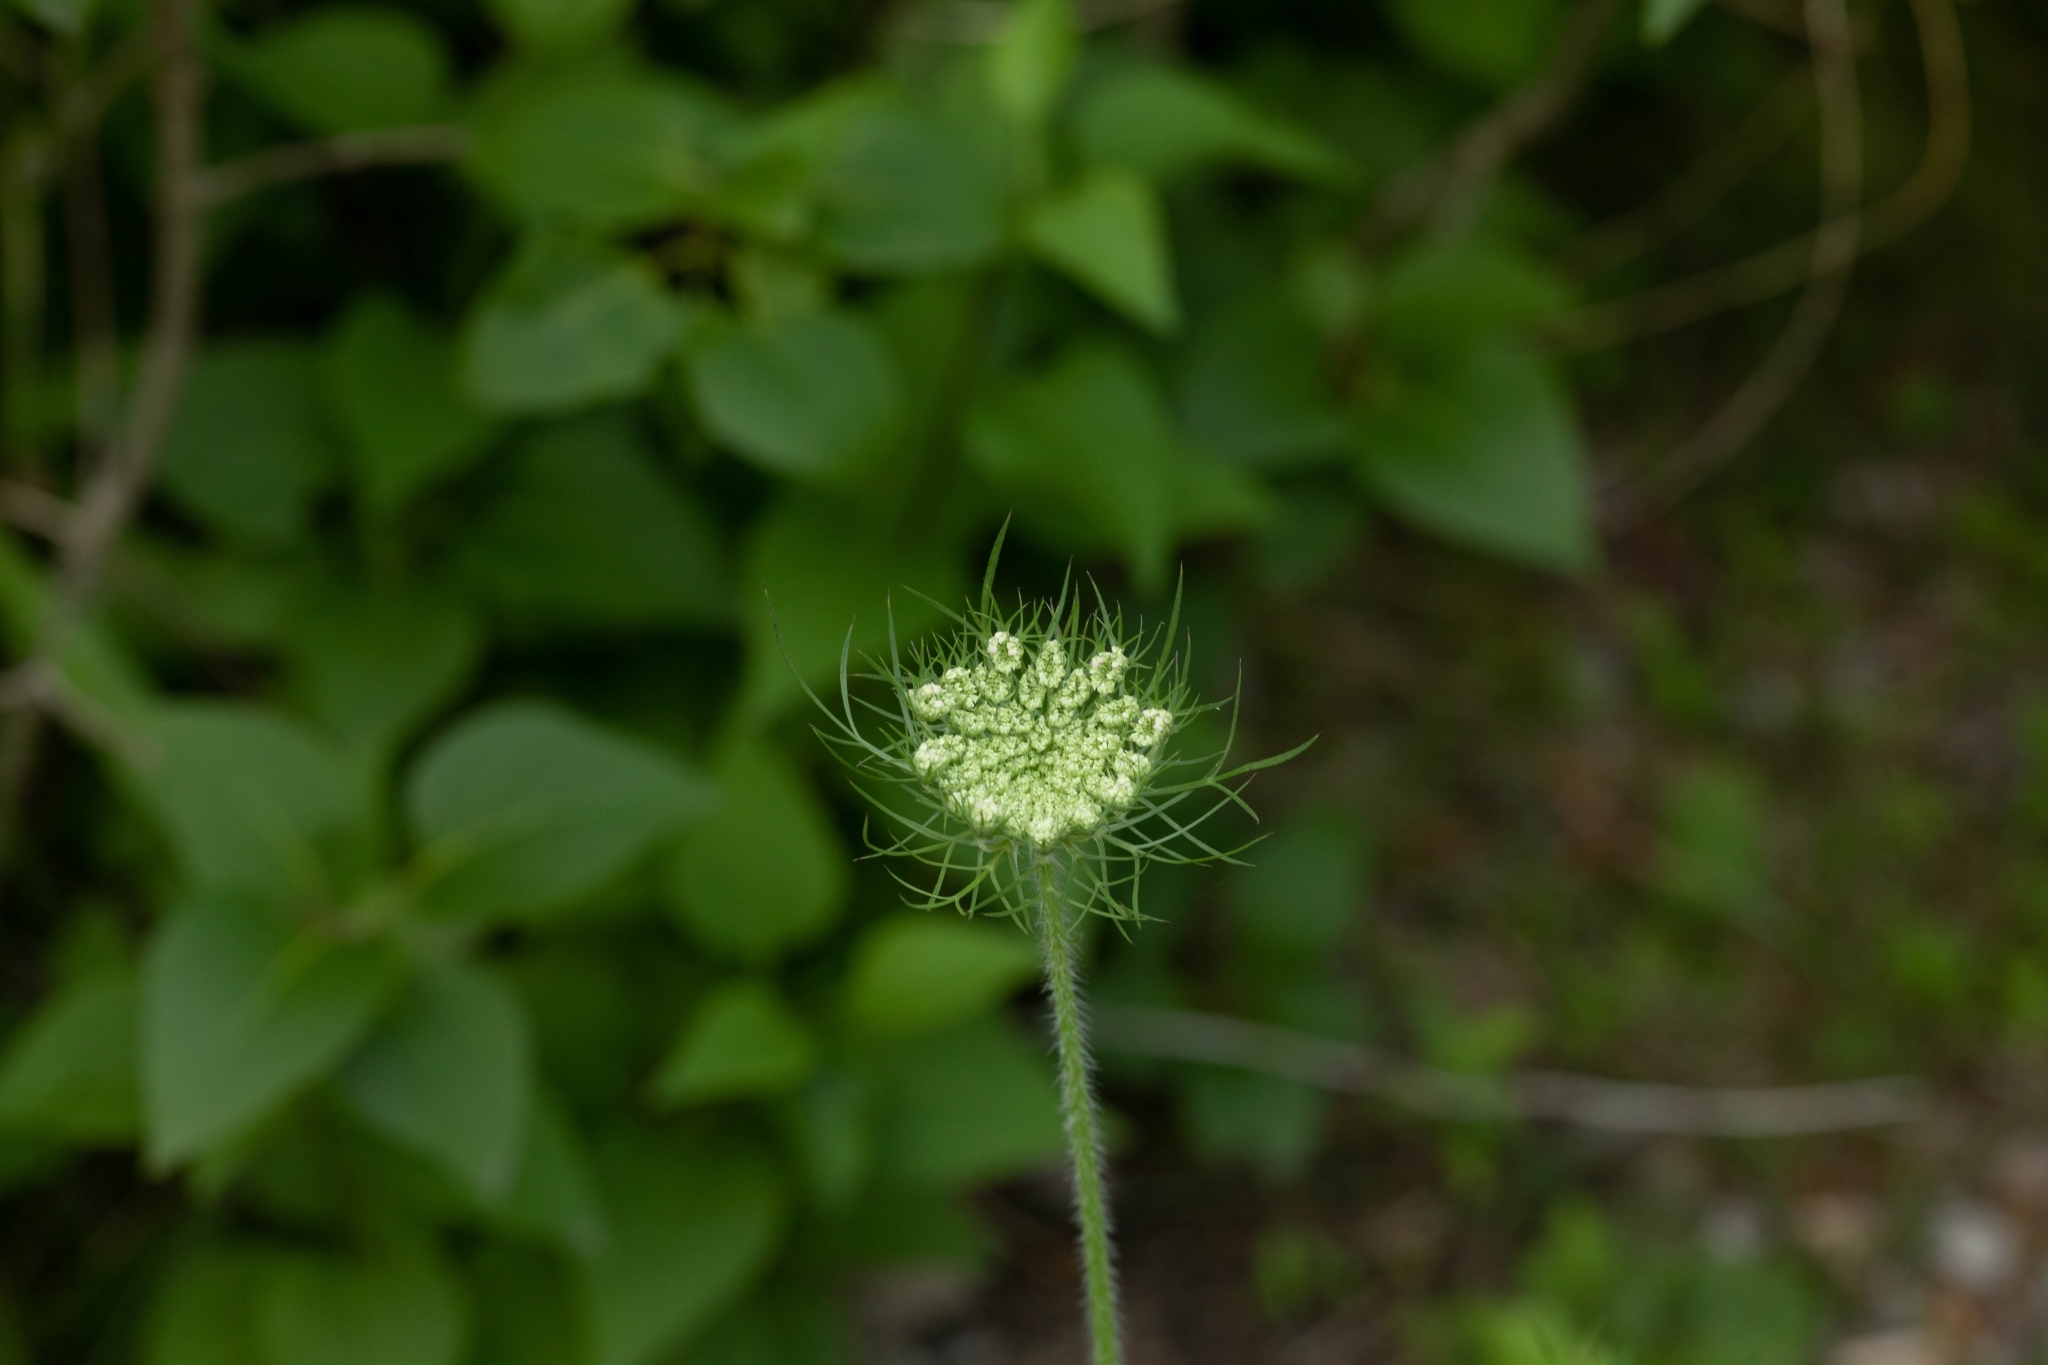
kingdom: Plantae
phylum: Tracheophyta
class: Magnoliopsida
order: Apiales
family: Apiaceae
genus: Daucus
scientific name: Daucus carota
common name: Wild carrot
